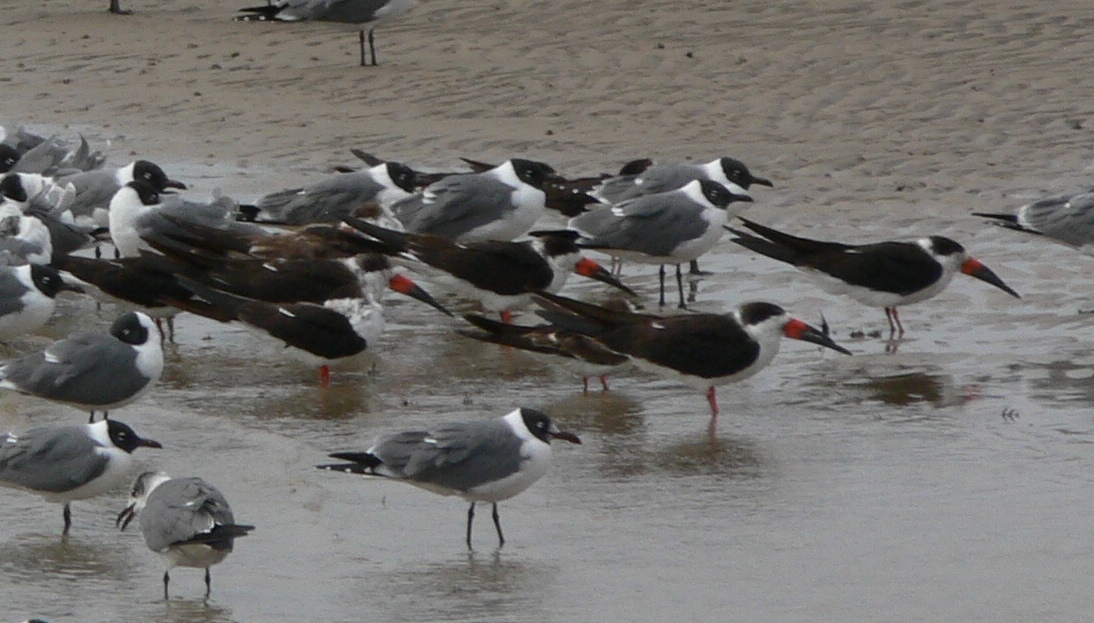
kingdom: Animalia
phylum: Chordata
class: Aves
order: Charadriiformes
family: Laridae
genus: Rynchops
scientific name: Rynchops niger
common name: Black skimmer
